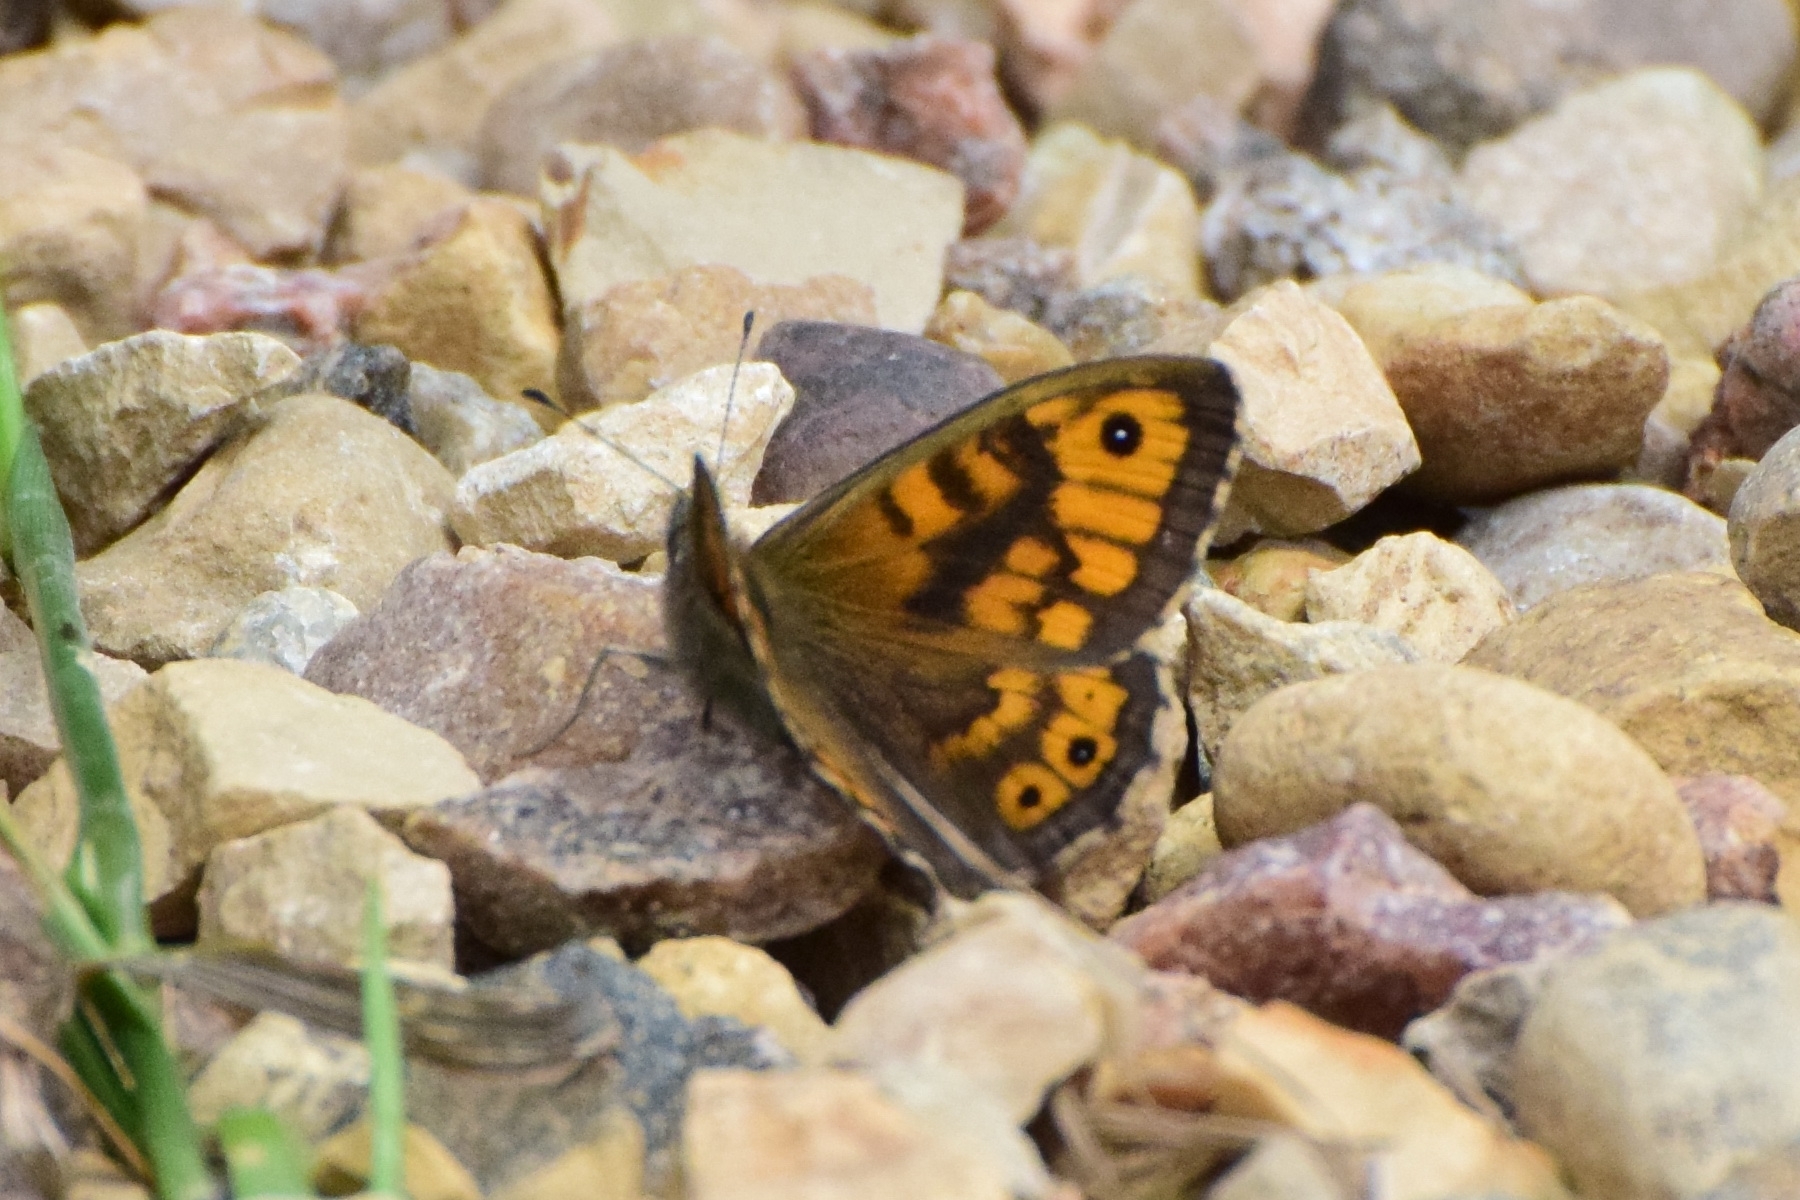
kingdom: Animalia
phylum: Arthropoda
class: Insecta
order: Lepidoptera
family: Nymphalidae
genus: Pararge
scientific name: Pararge Lasiommata megera
